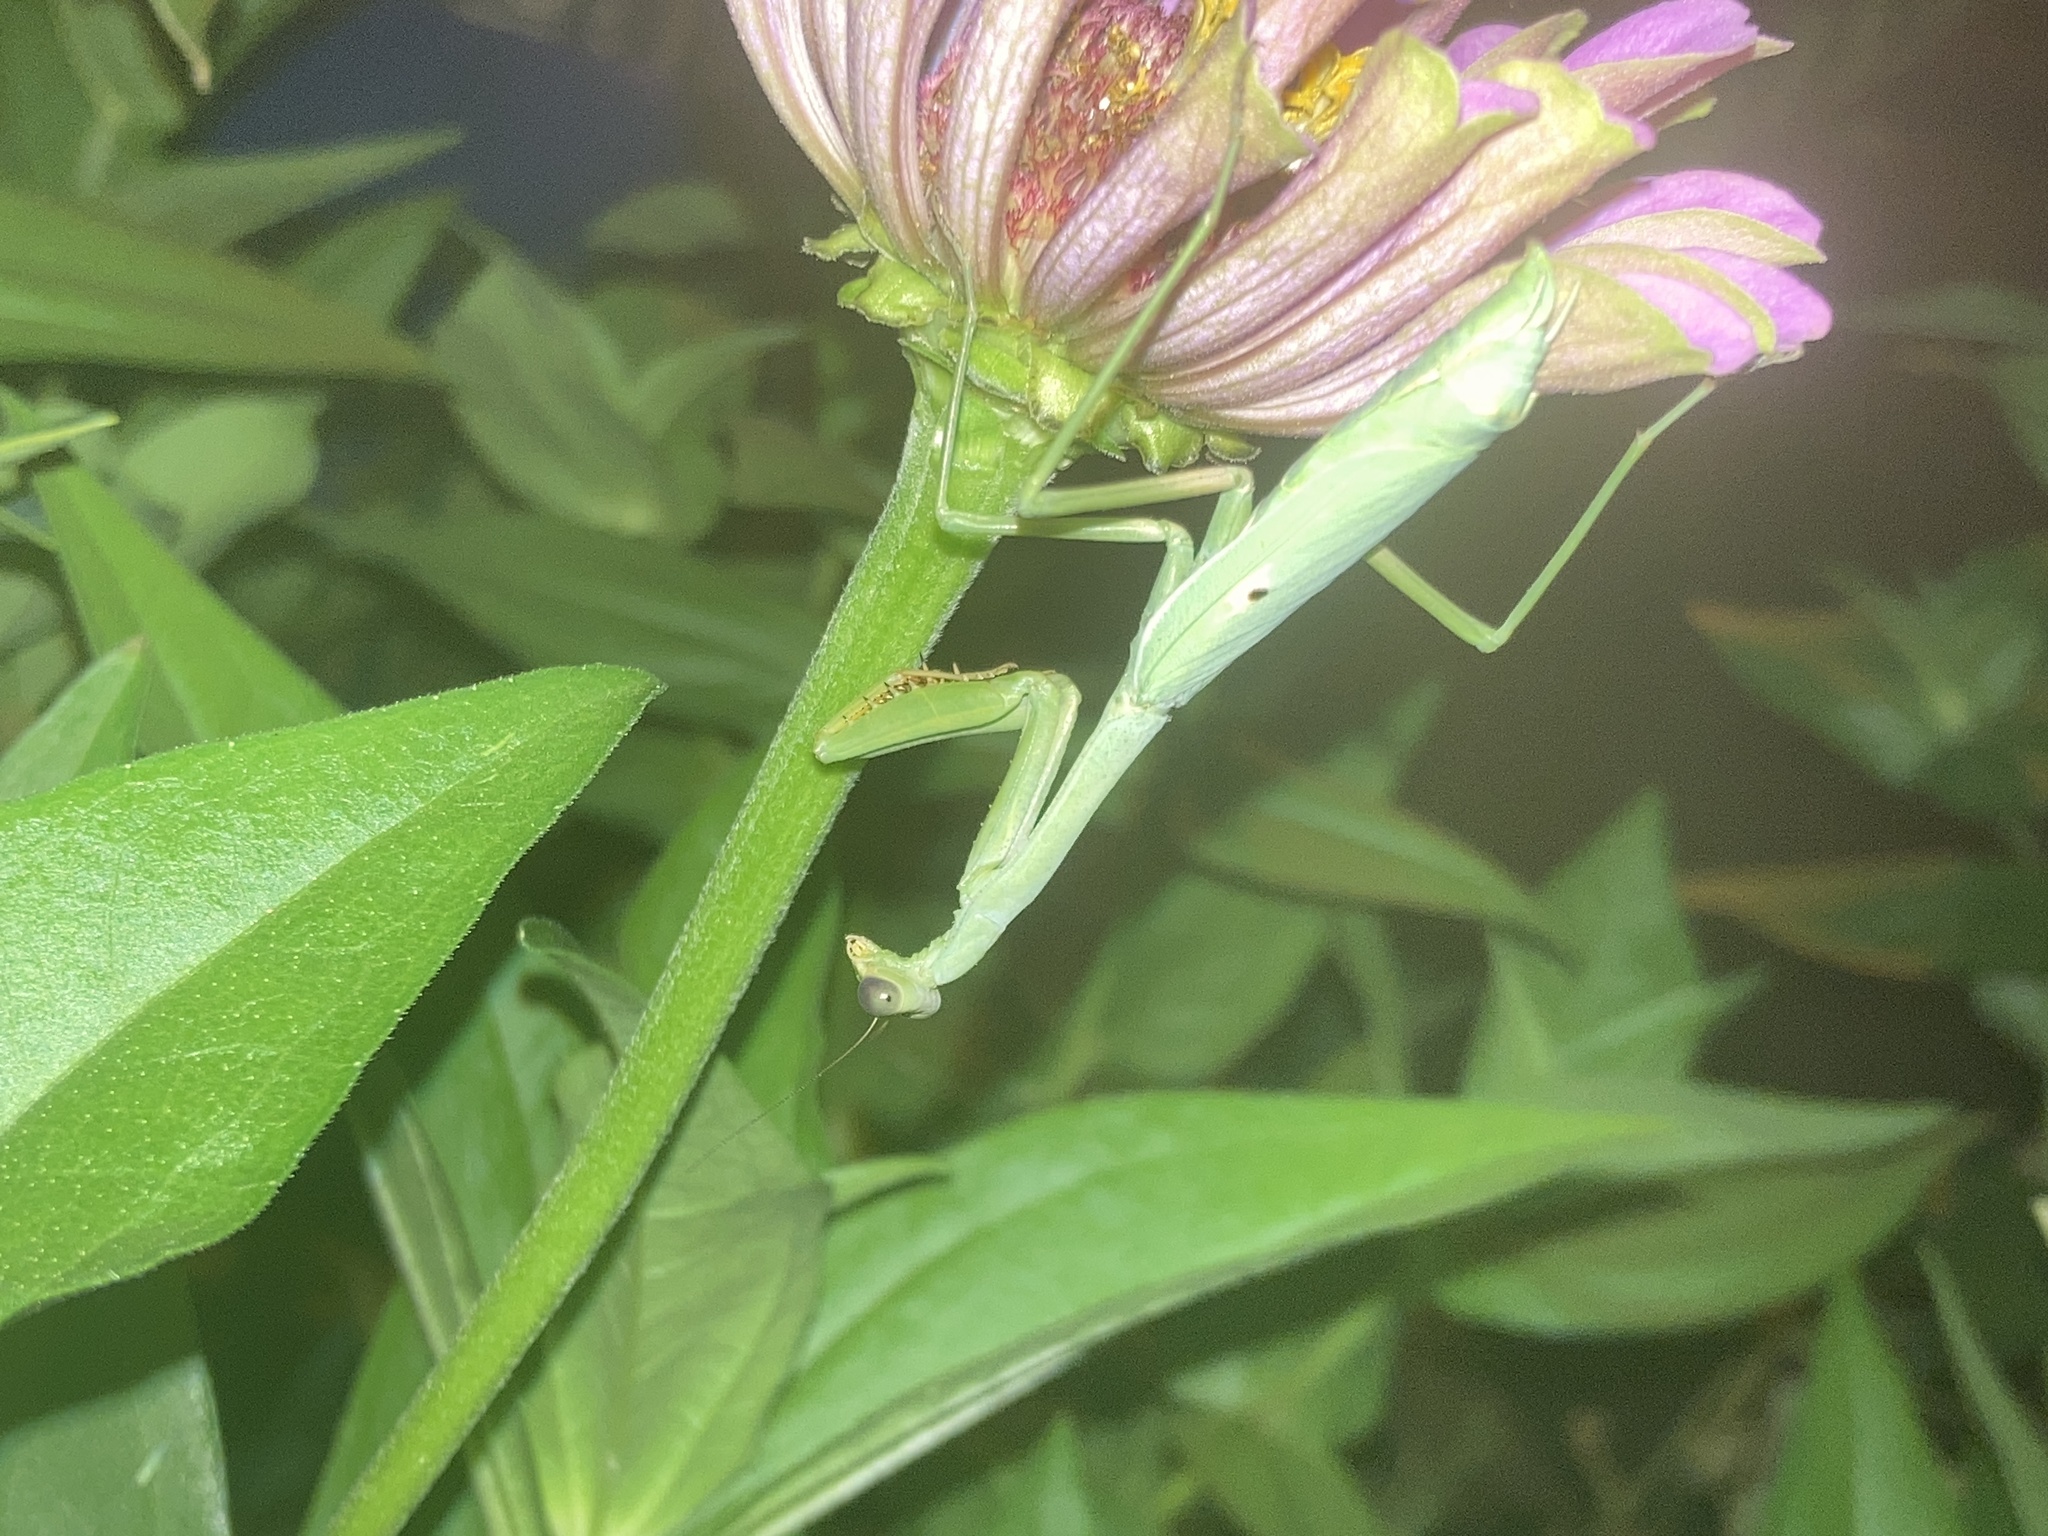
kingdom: Animalia
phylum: Arthropoda
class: Insecta
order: Mantodea
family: Mantidae
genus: Stagmomantis
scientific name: Stagmomantis carolina
